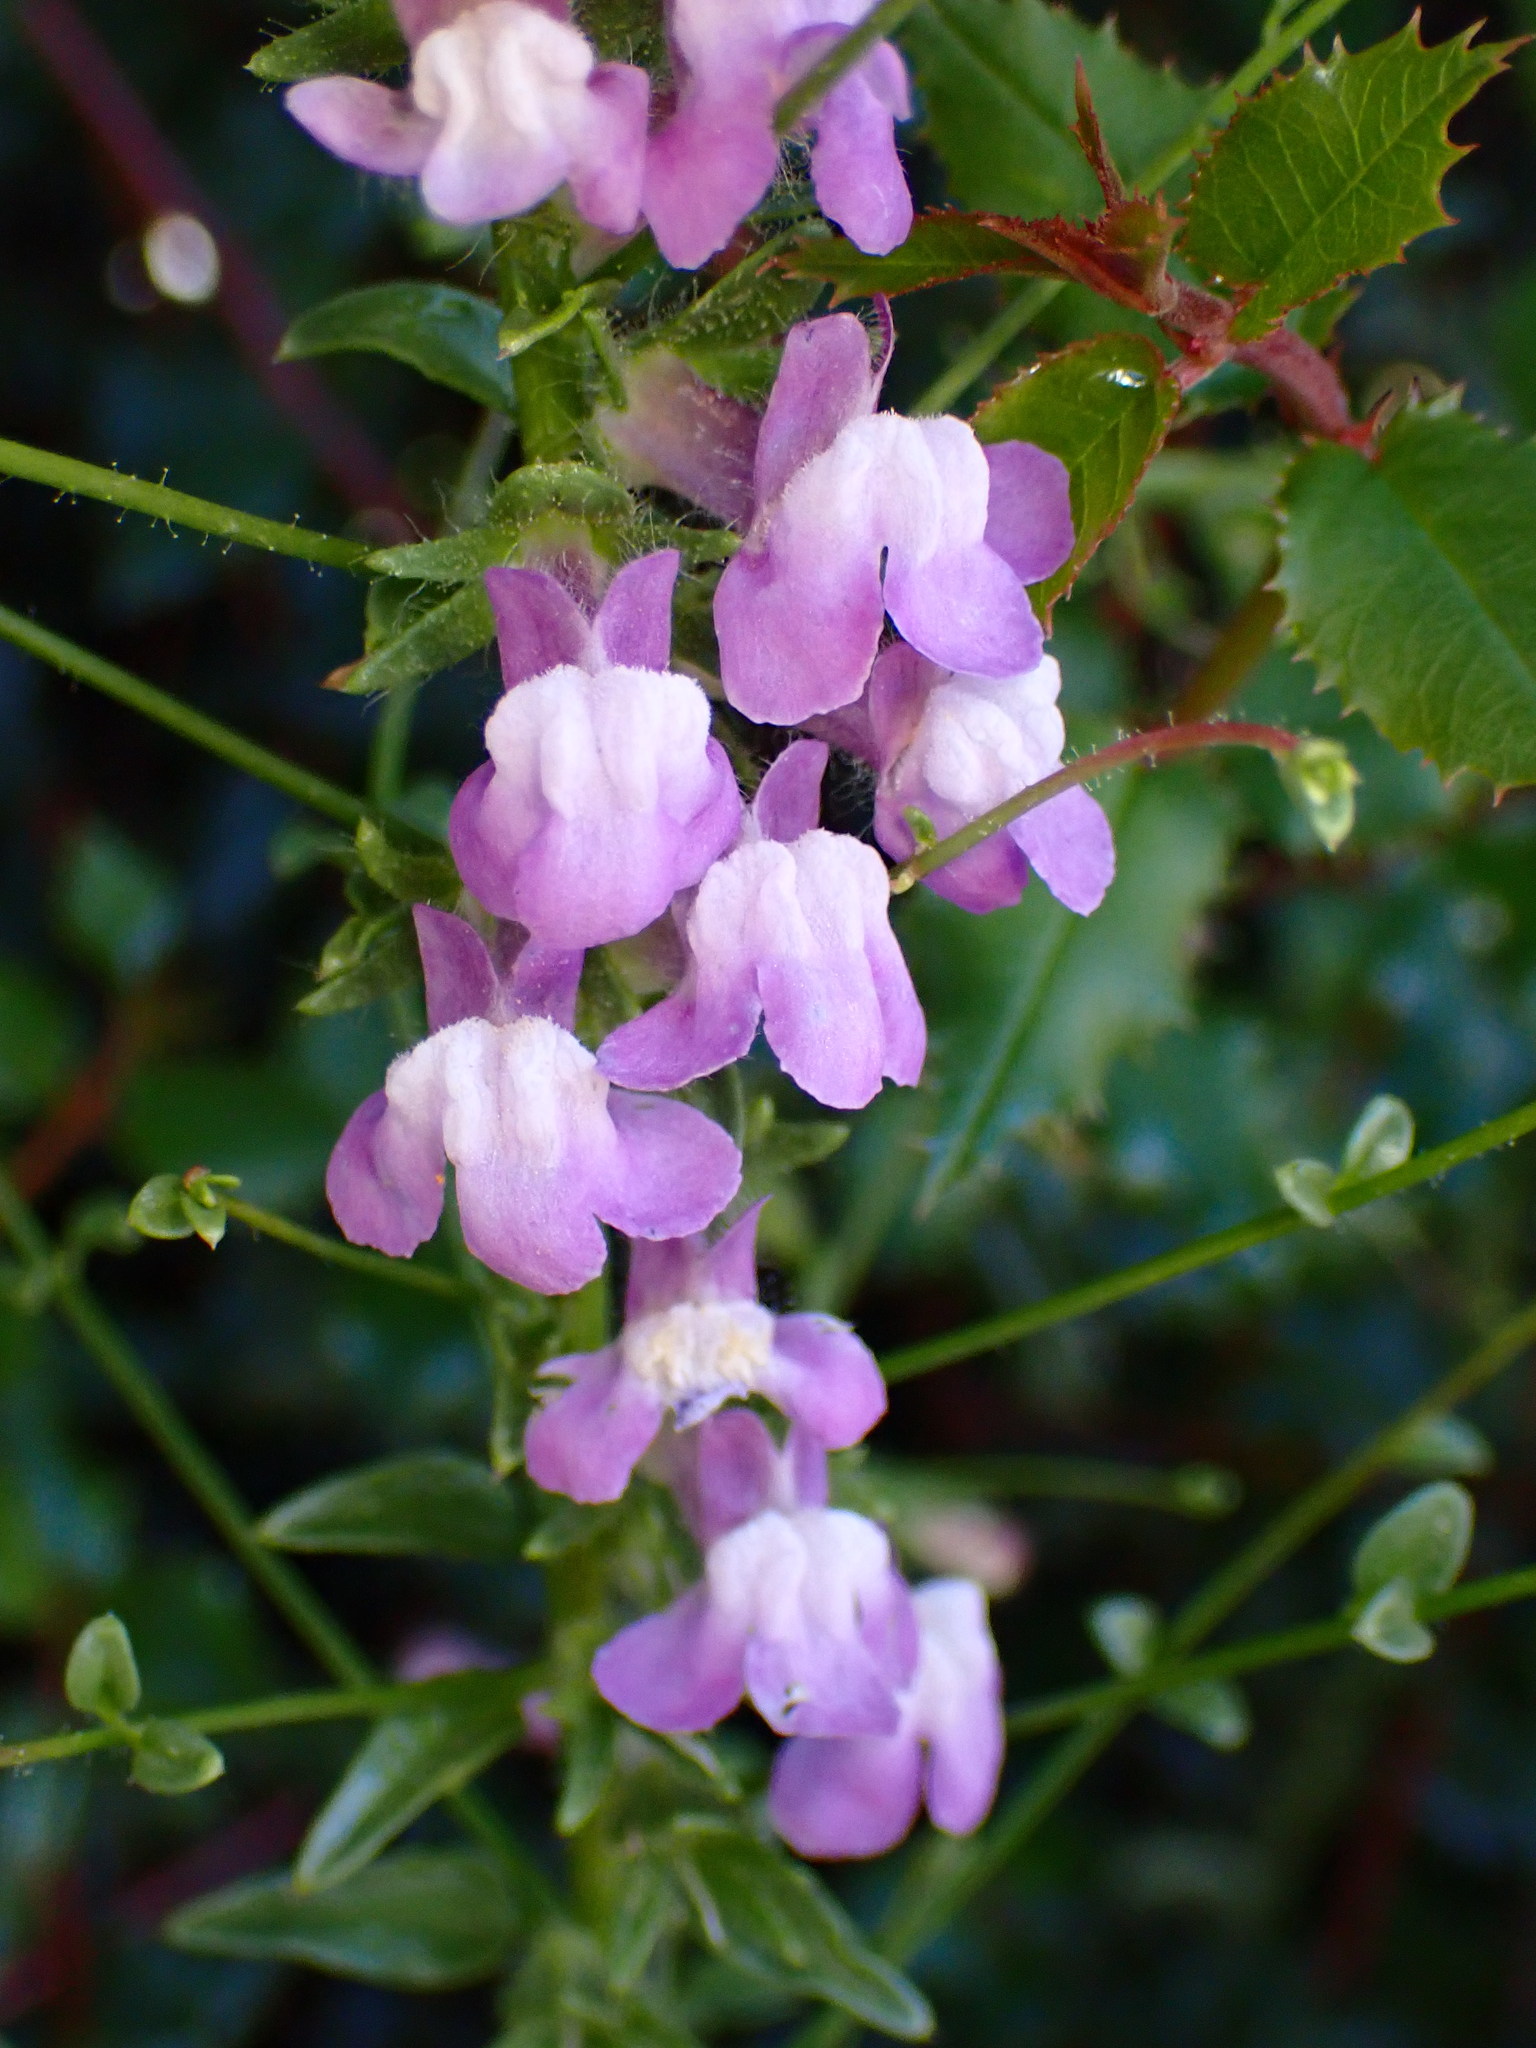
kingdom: Plantae
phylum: Tracheophyta
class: Magnoliopsida
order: Lamiales
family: Plantaginaceae
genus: Sairocarpus
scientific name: Sairocarpus vexillocalyculatus
